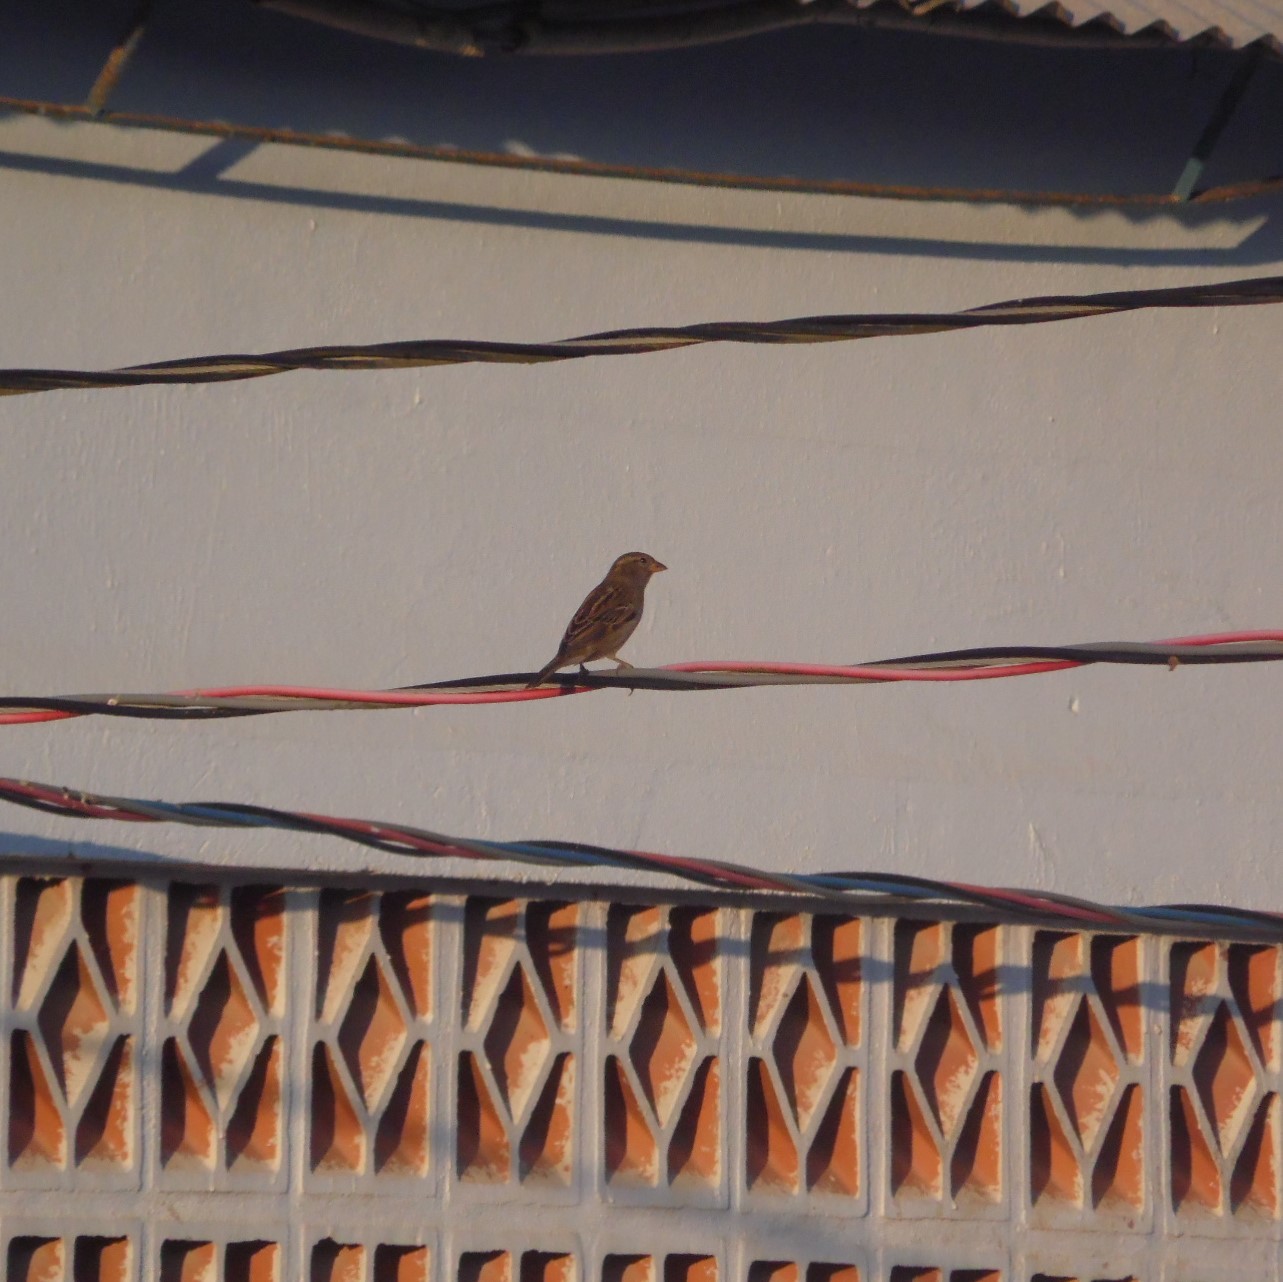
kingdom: Animalia
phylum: Chordata
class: Aves
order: Passeriformes
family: Passeridae
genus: Passer
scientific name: Passer domesticus
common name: House sparrow
